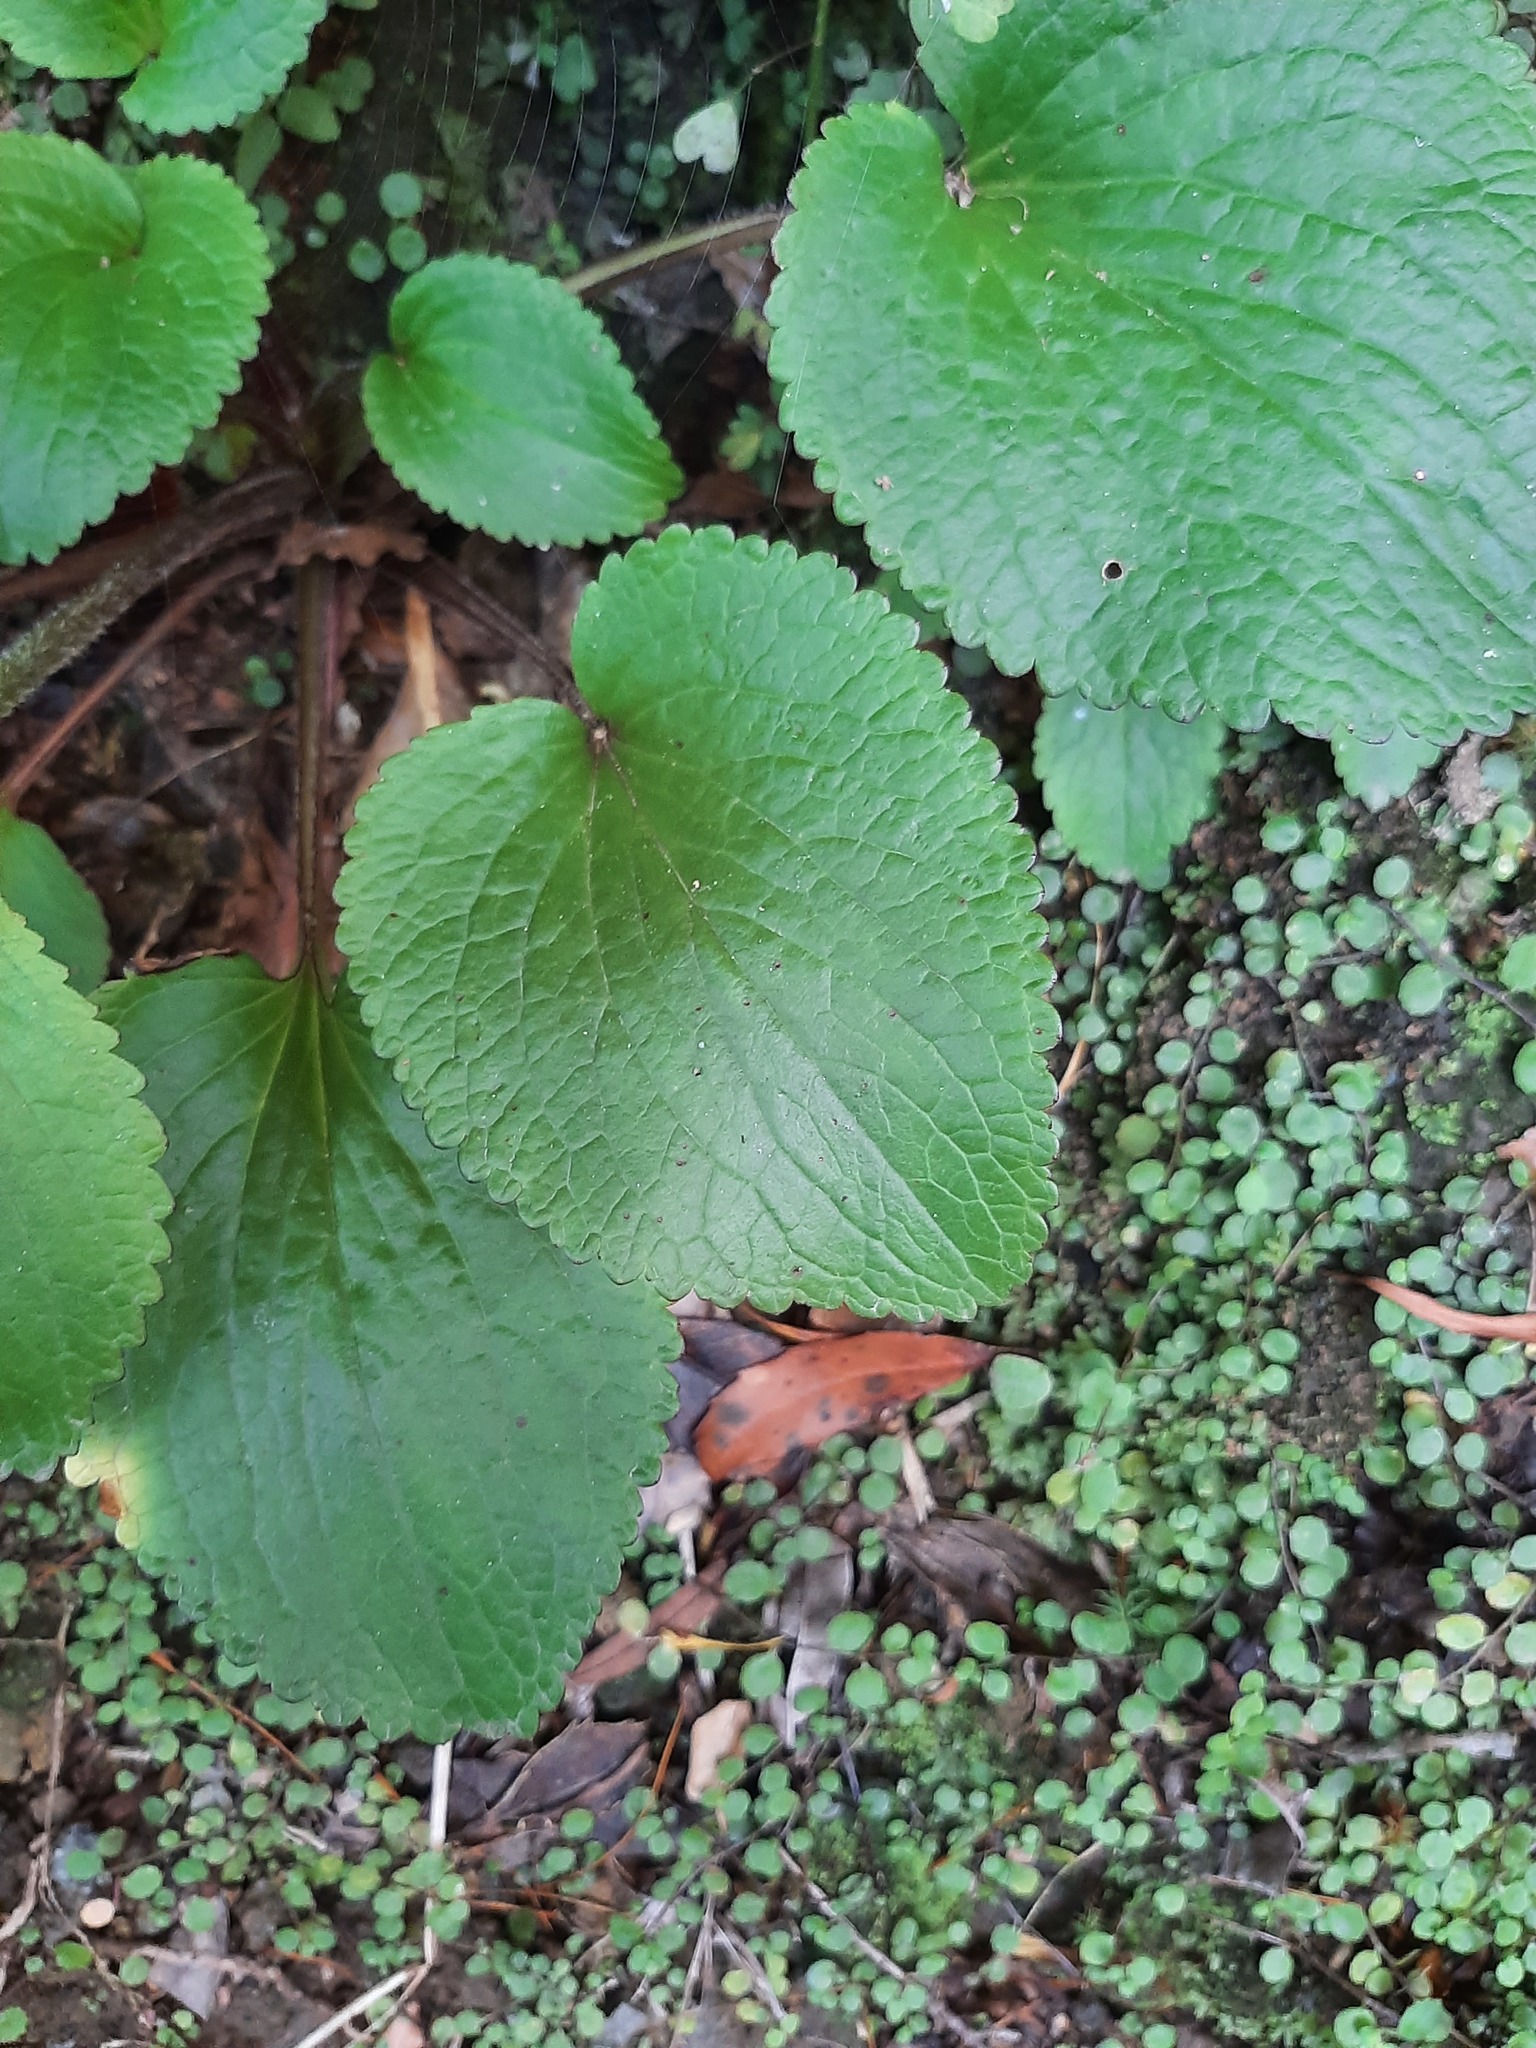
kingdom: Plantae
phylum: Tracheophyta
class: Magnoliopsida
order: Lamiales
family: Plantaginaceae
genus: Ourisia
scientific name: Ourisia macrophylla
